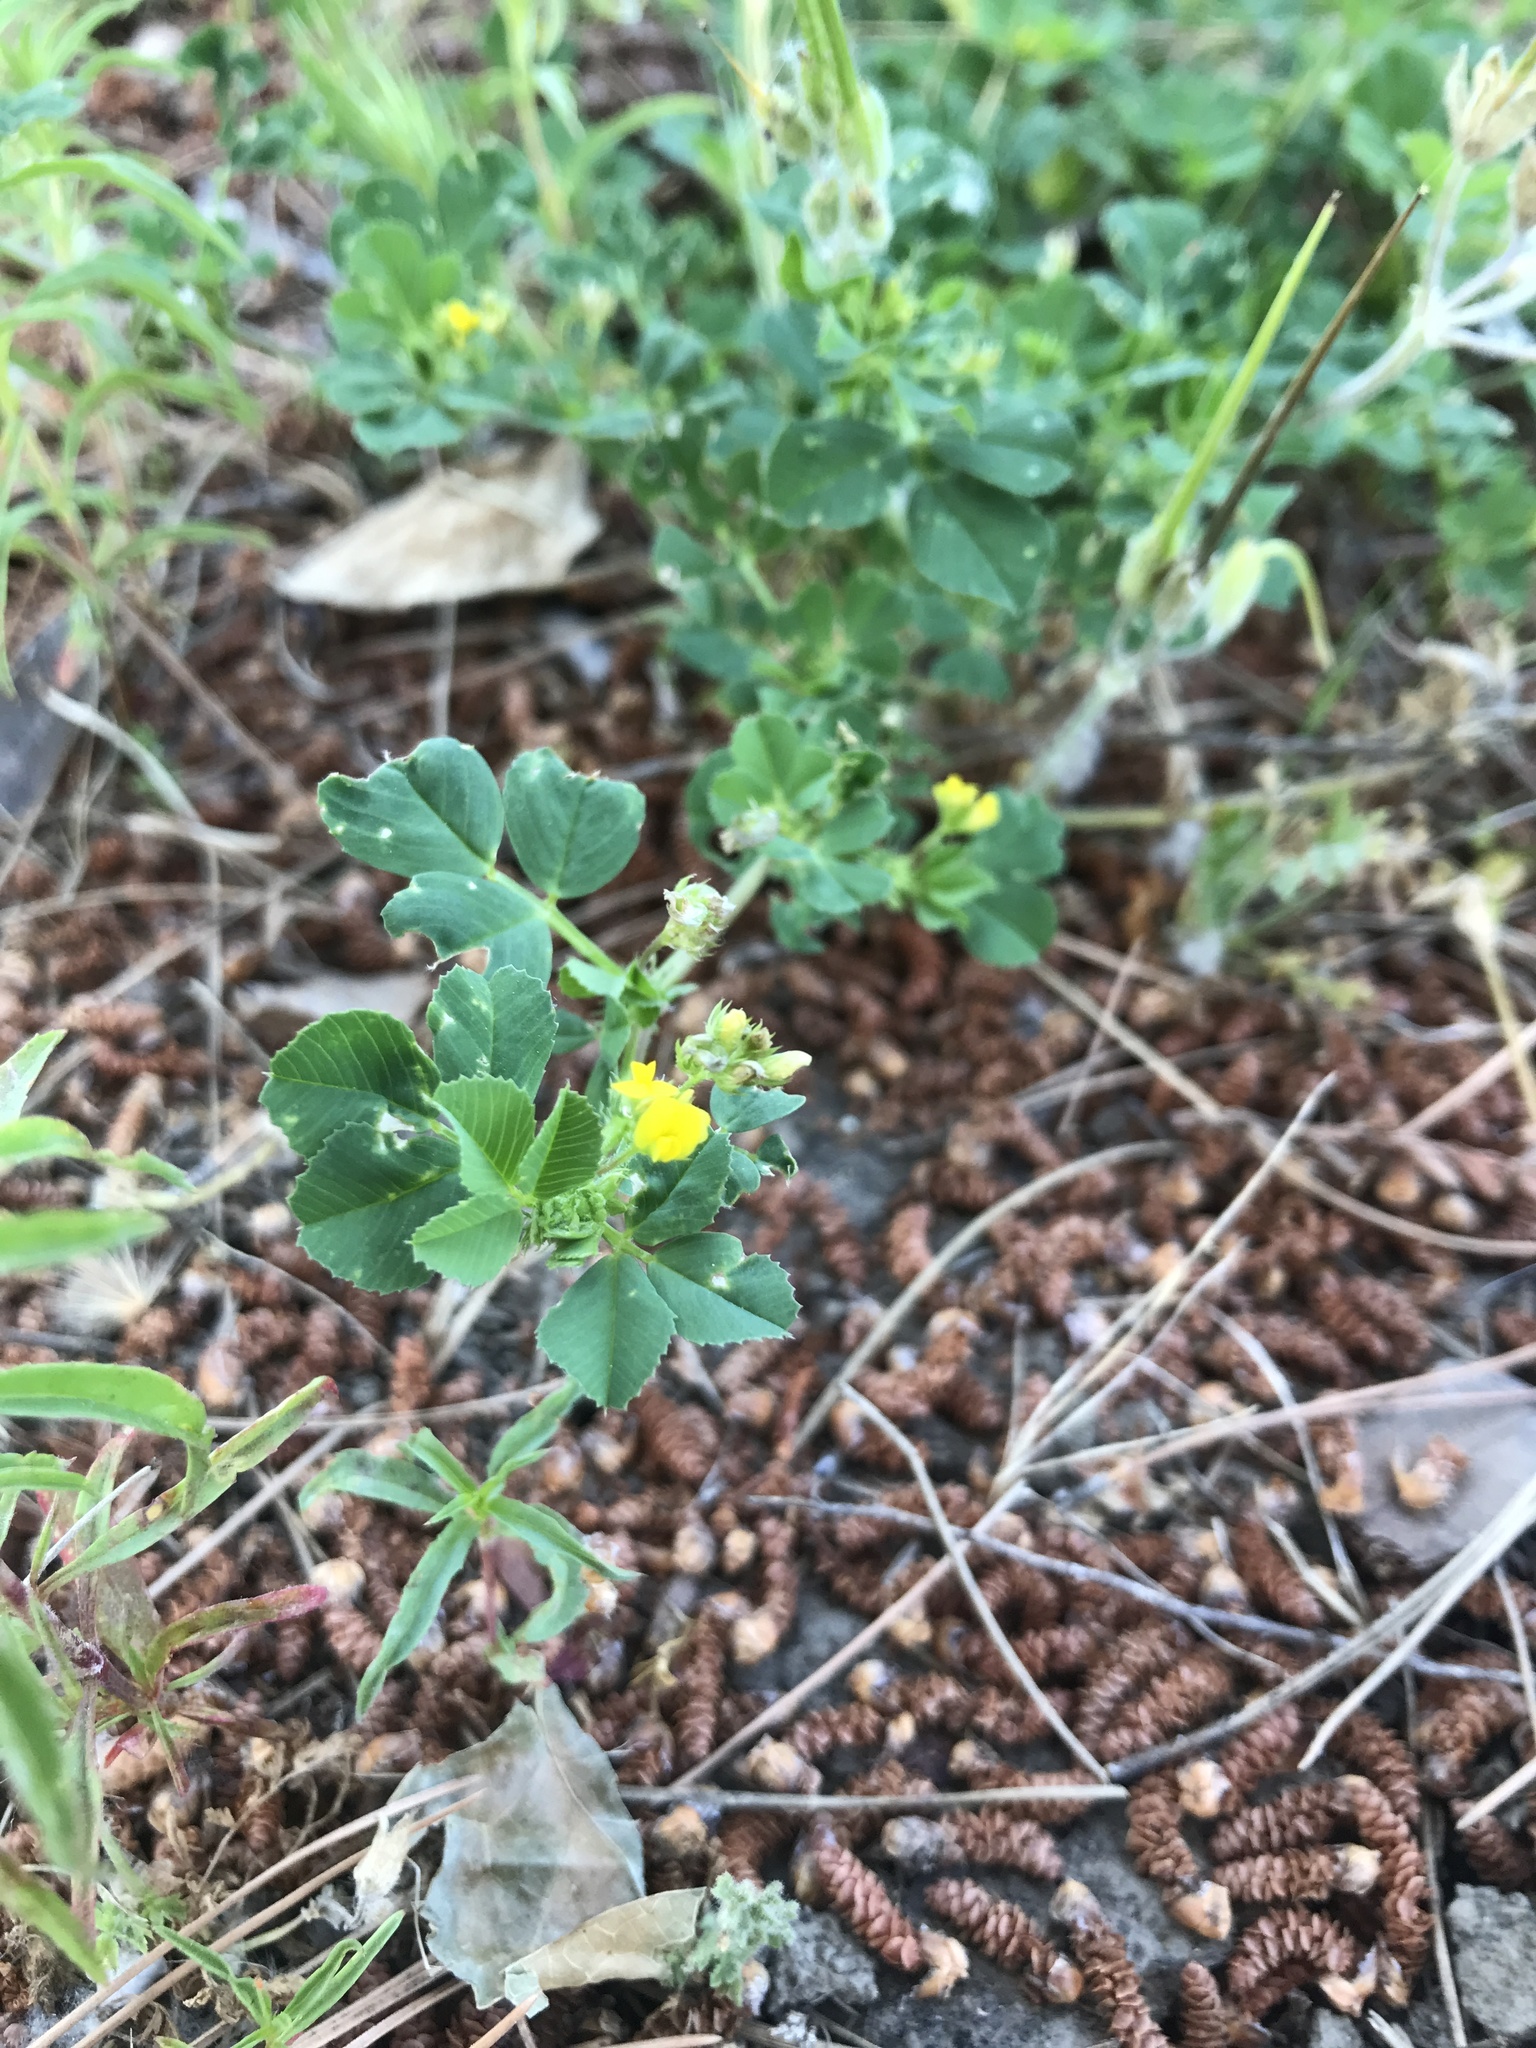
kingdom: Plantae
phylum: Tracheophyta
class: Magnoliopsida
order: Fabales
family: Fabaceae
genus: Medicago
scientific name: Medicago polymorpha
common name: Burclover
